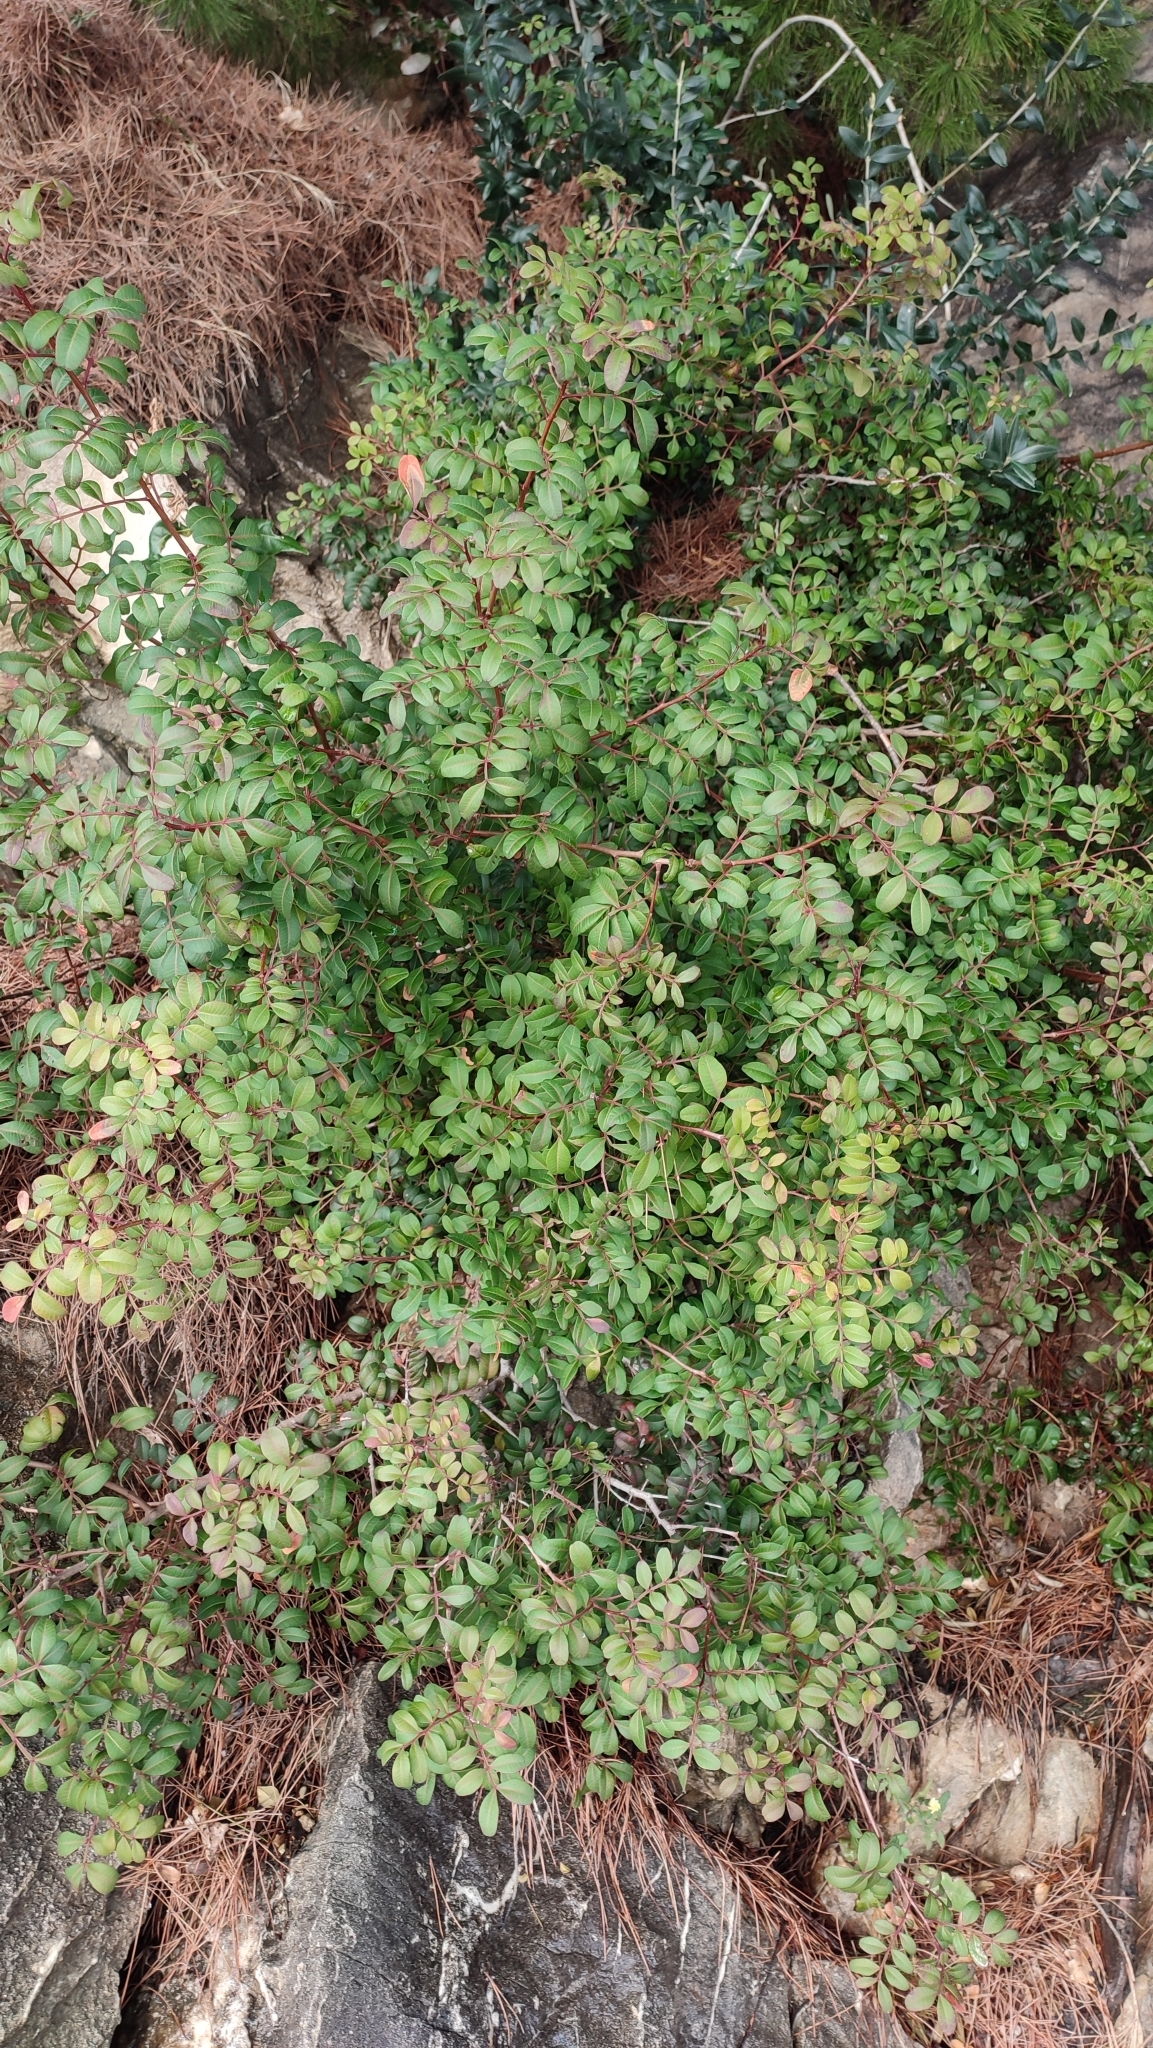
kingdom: Plantae
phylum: Tracheophyta
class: Magnoliopsida
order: Sapindales
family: Anacardiaceae
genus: Pistacia
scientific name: Pistacia lentiscus
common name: Lentisk
